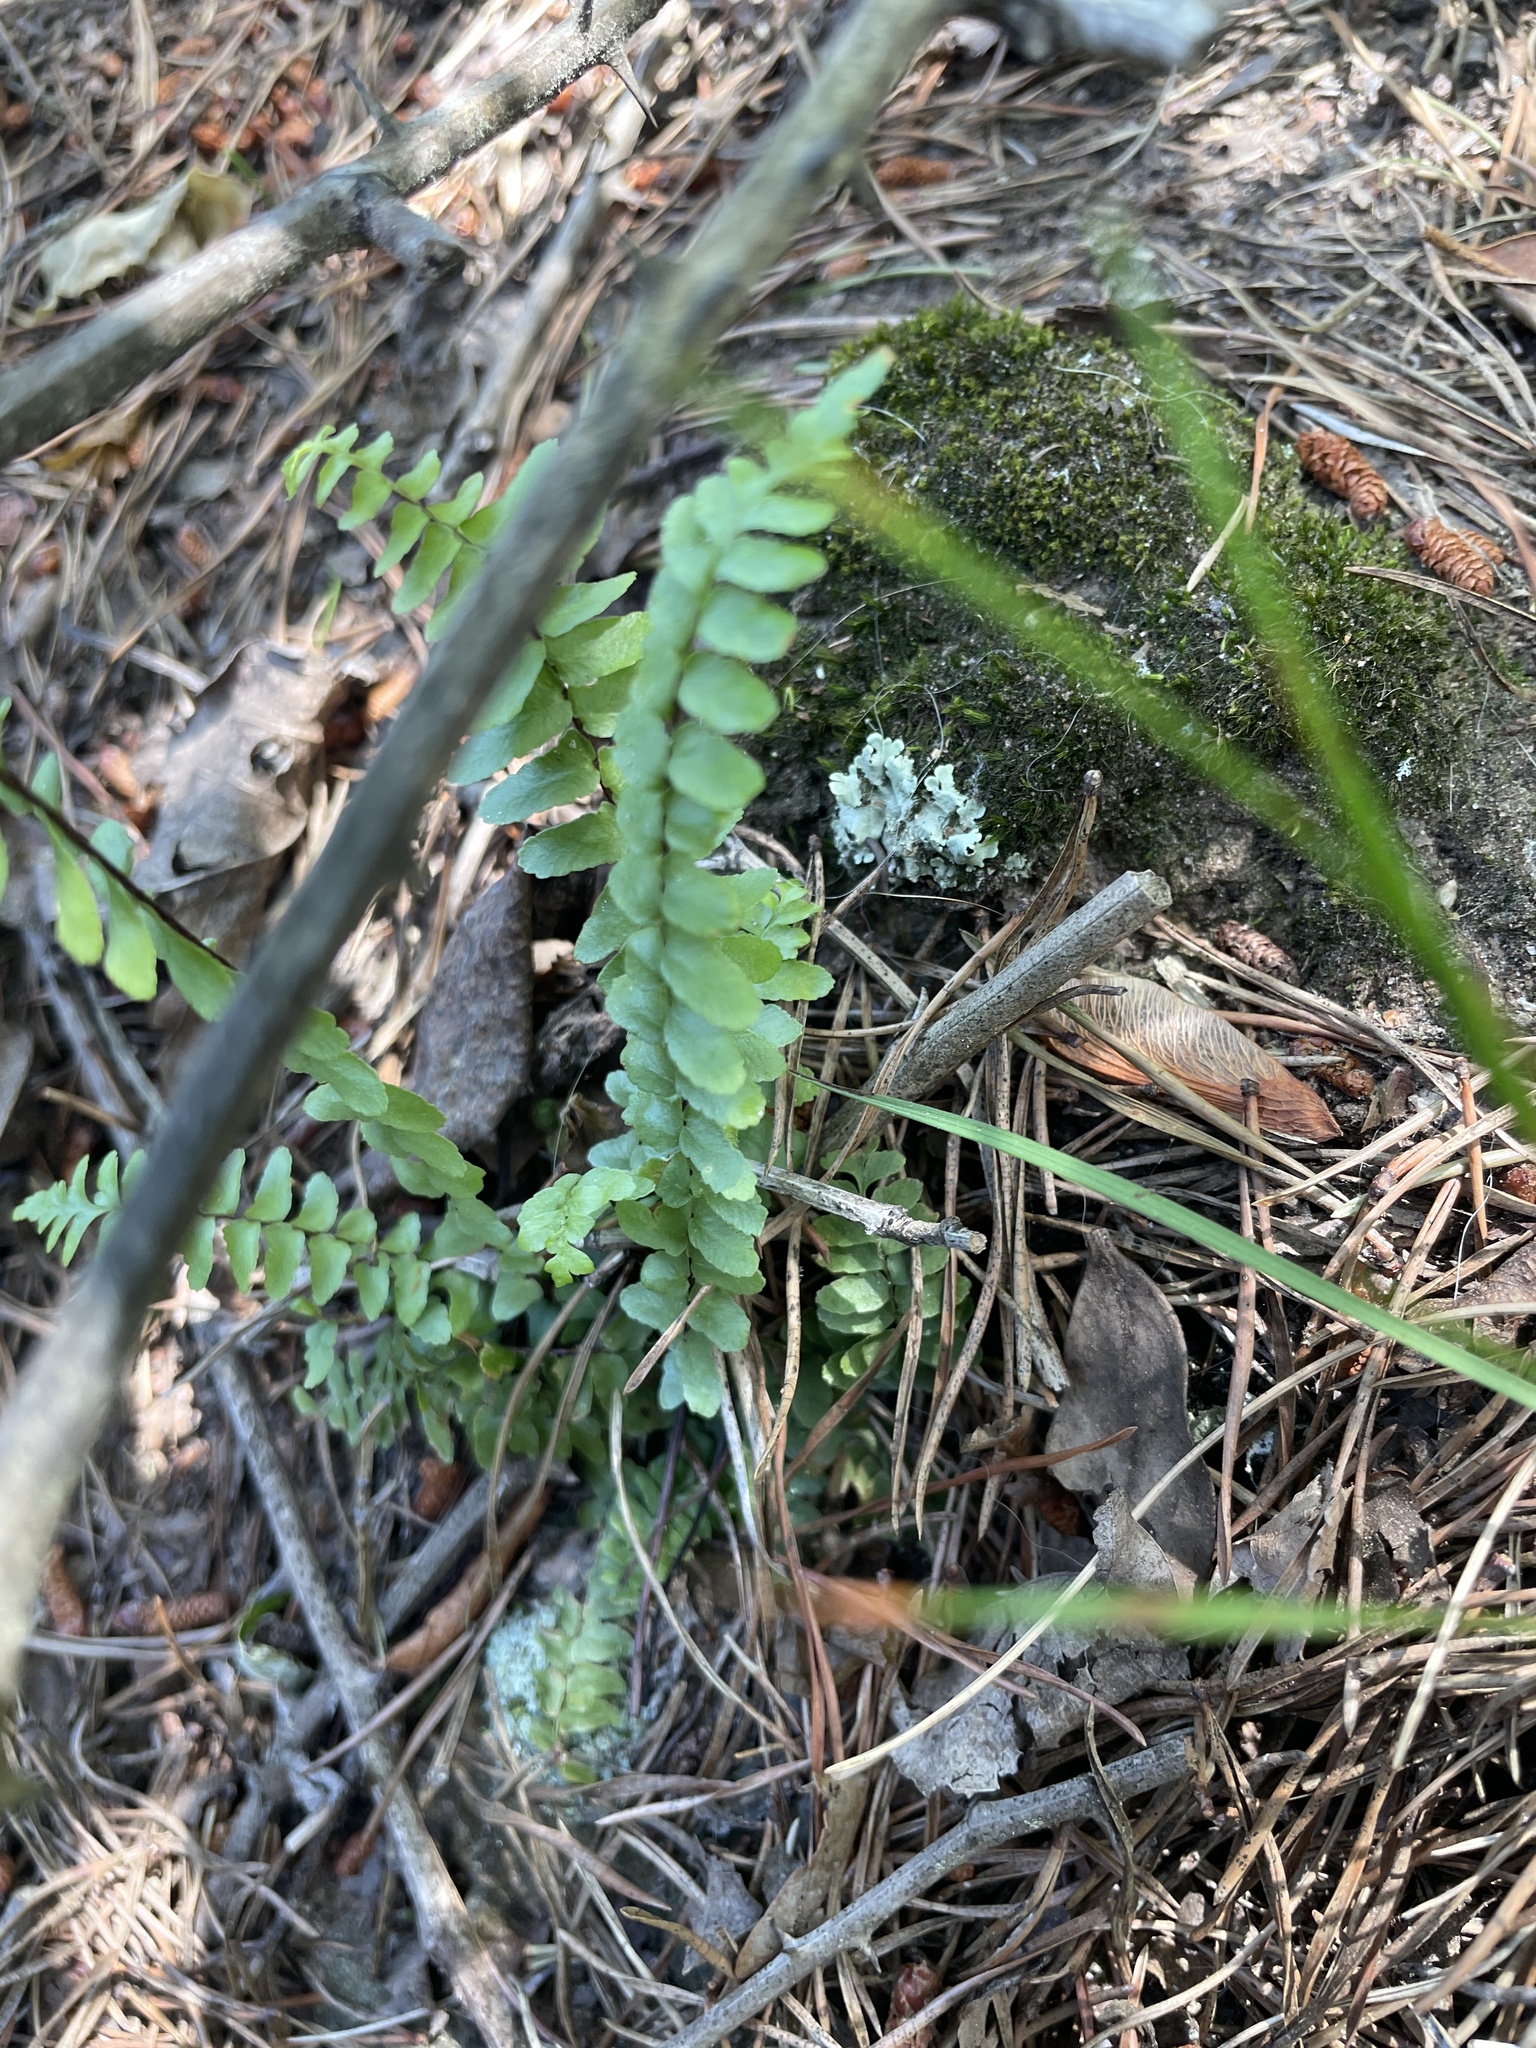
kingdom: Plantae
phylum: Tracheophyta
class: Polypodiopsida
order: Polypodiales
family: Aspleniaceae
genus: Asplenium
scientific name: Asplenium platyneuron
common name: Ebony spleenwort
